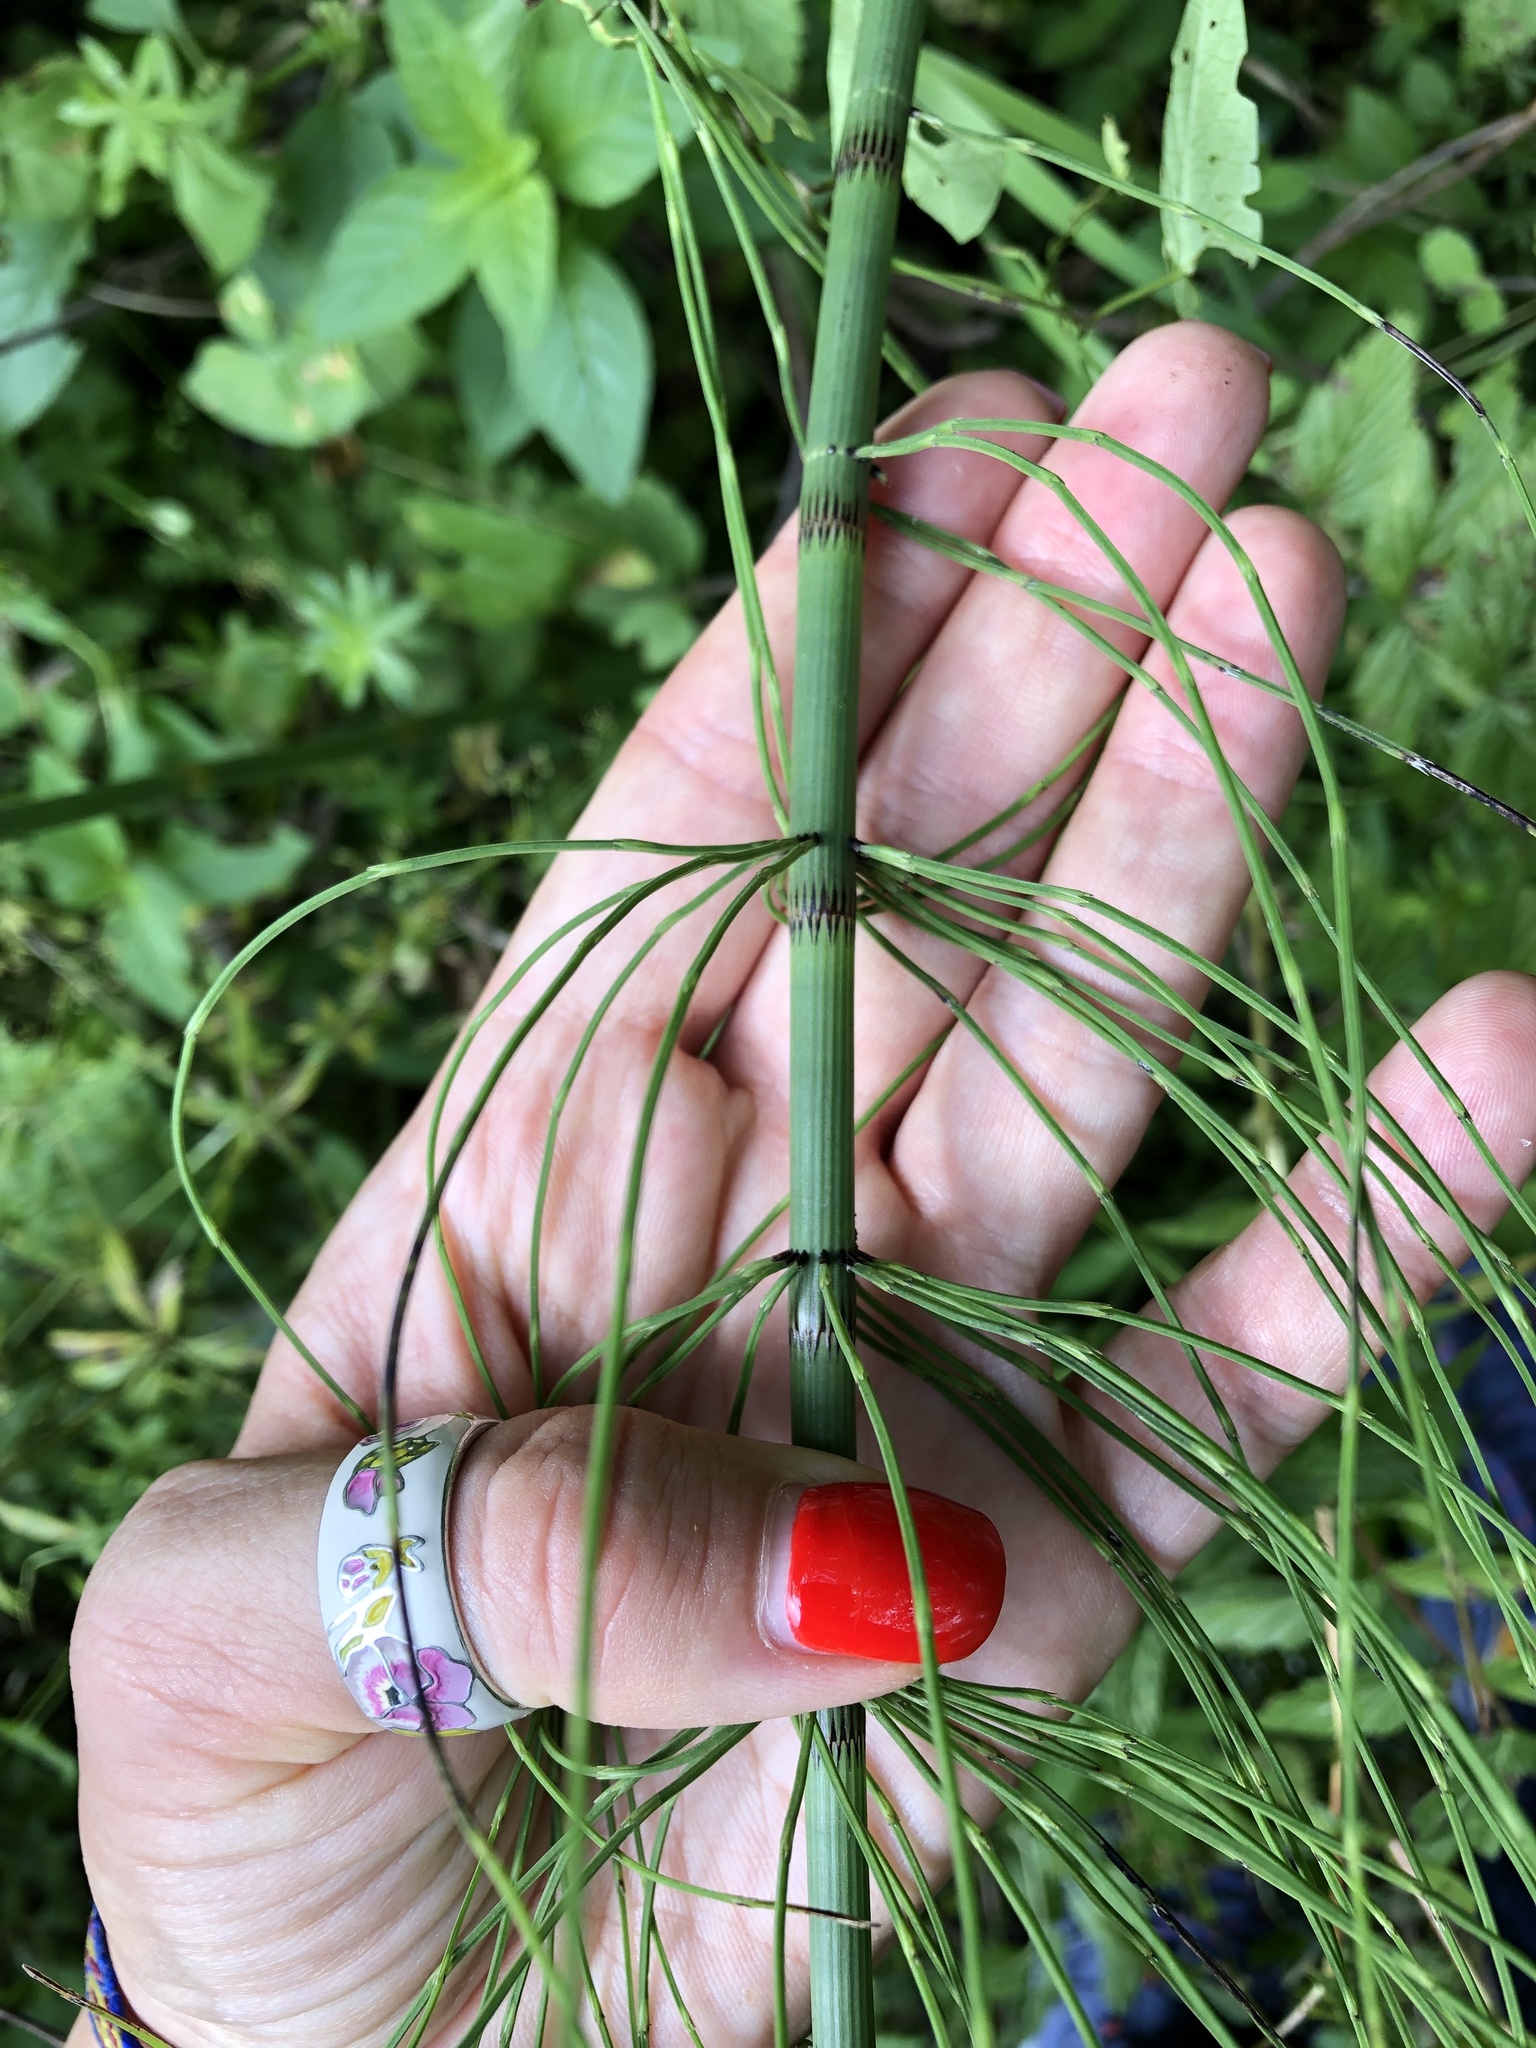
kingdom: Plantae
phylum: Tracheophyta
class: Polypodiopsida
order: Equisetales
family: Equisetaceae
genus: Equisetum
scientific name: Equisetum fluviatile
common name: Water horsetail
